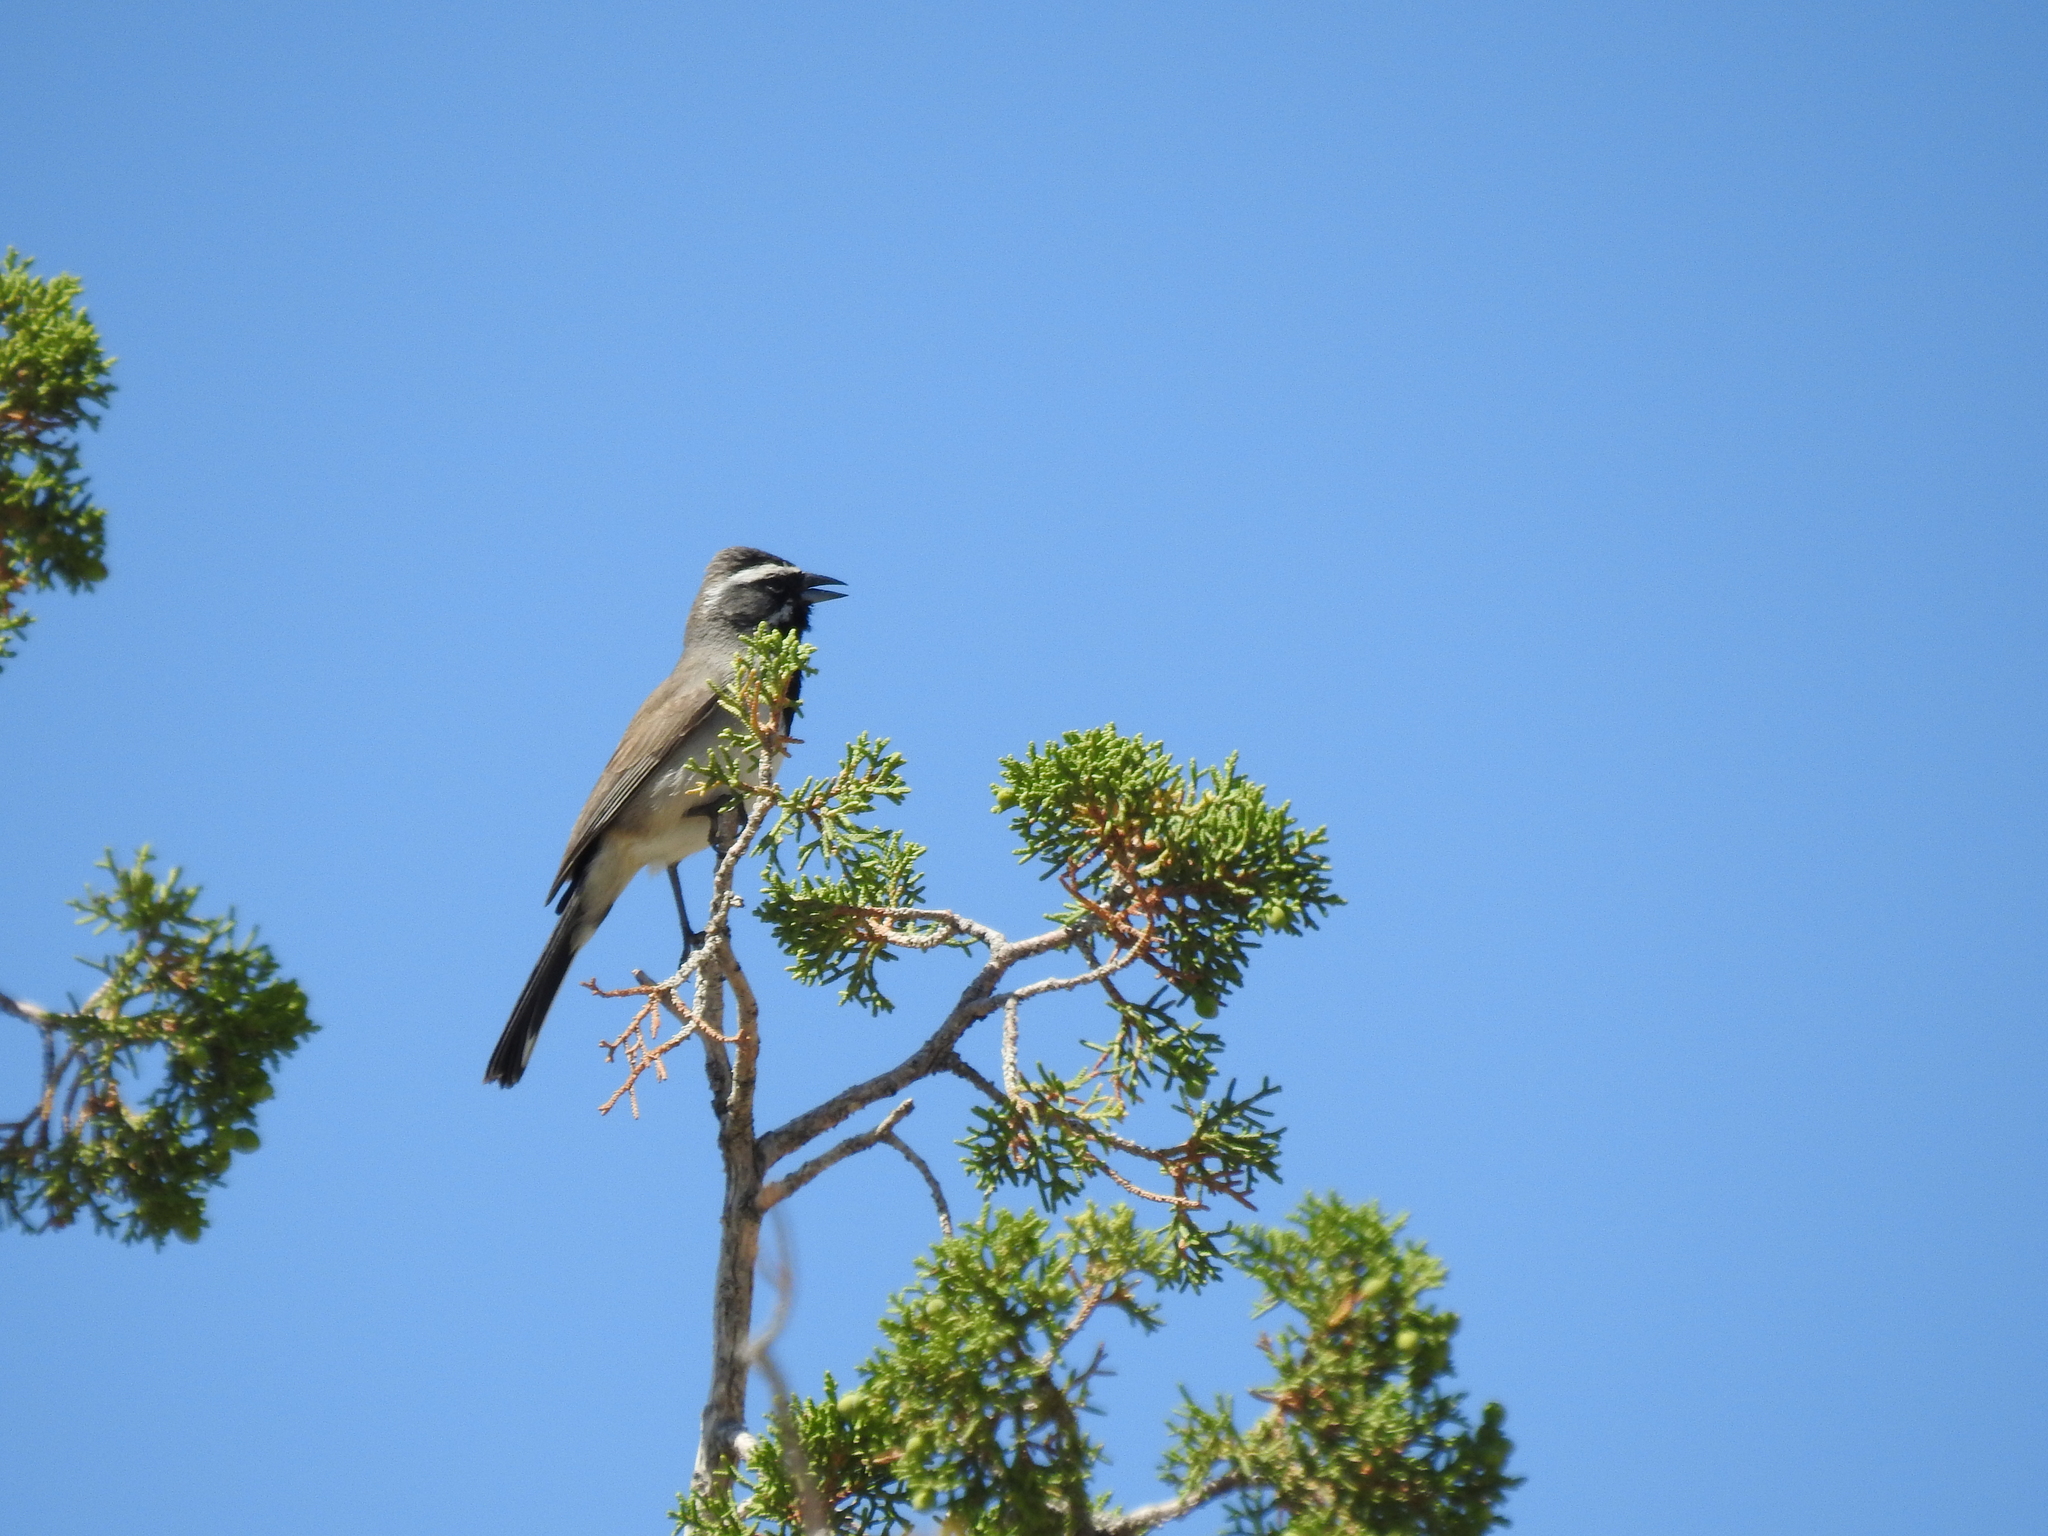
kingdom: Animalia
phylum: Chordata
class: Aves
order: Passeriformes
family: Passerellidae
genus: Amphispiza
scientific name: Amphispiza bilineata
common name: Black-throated sparrow
